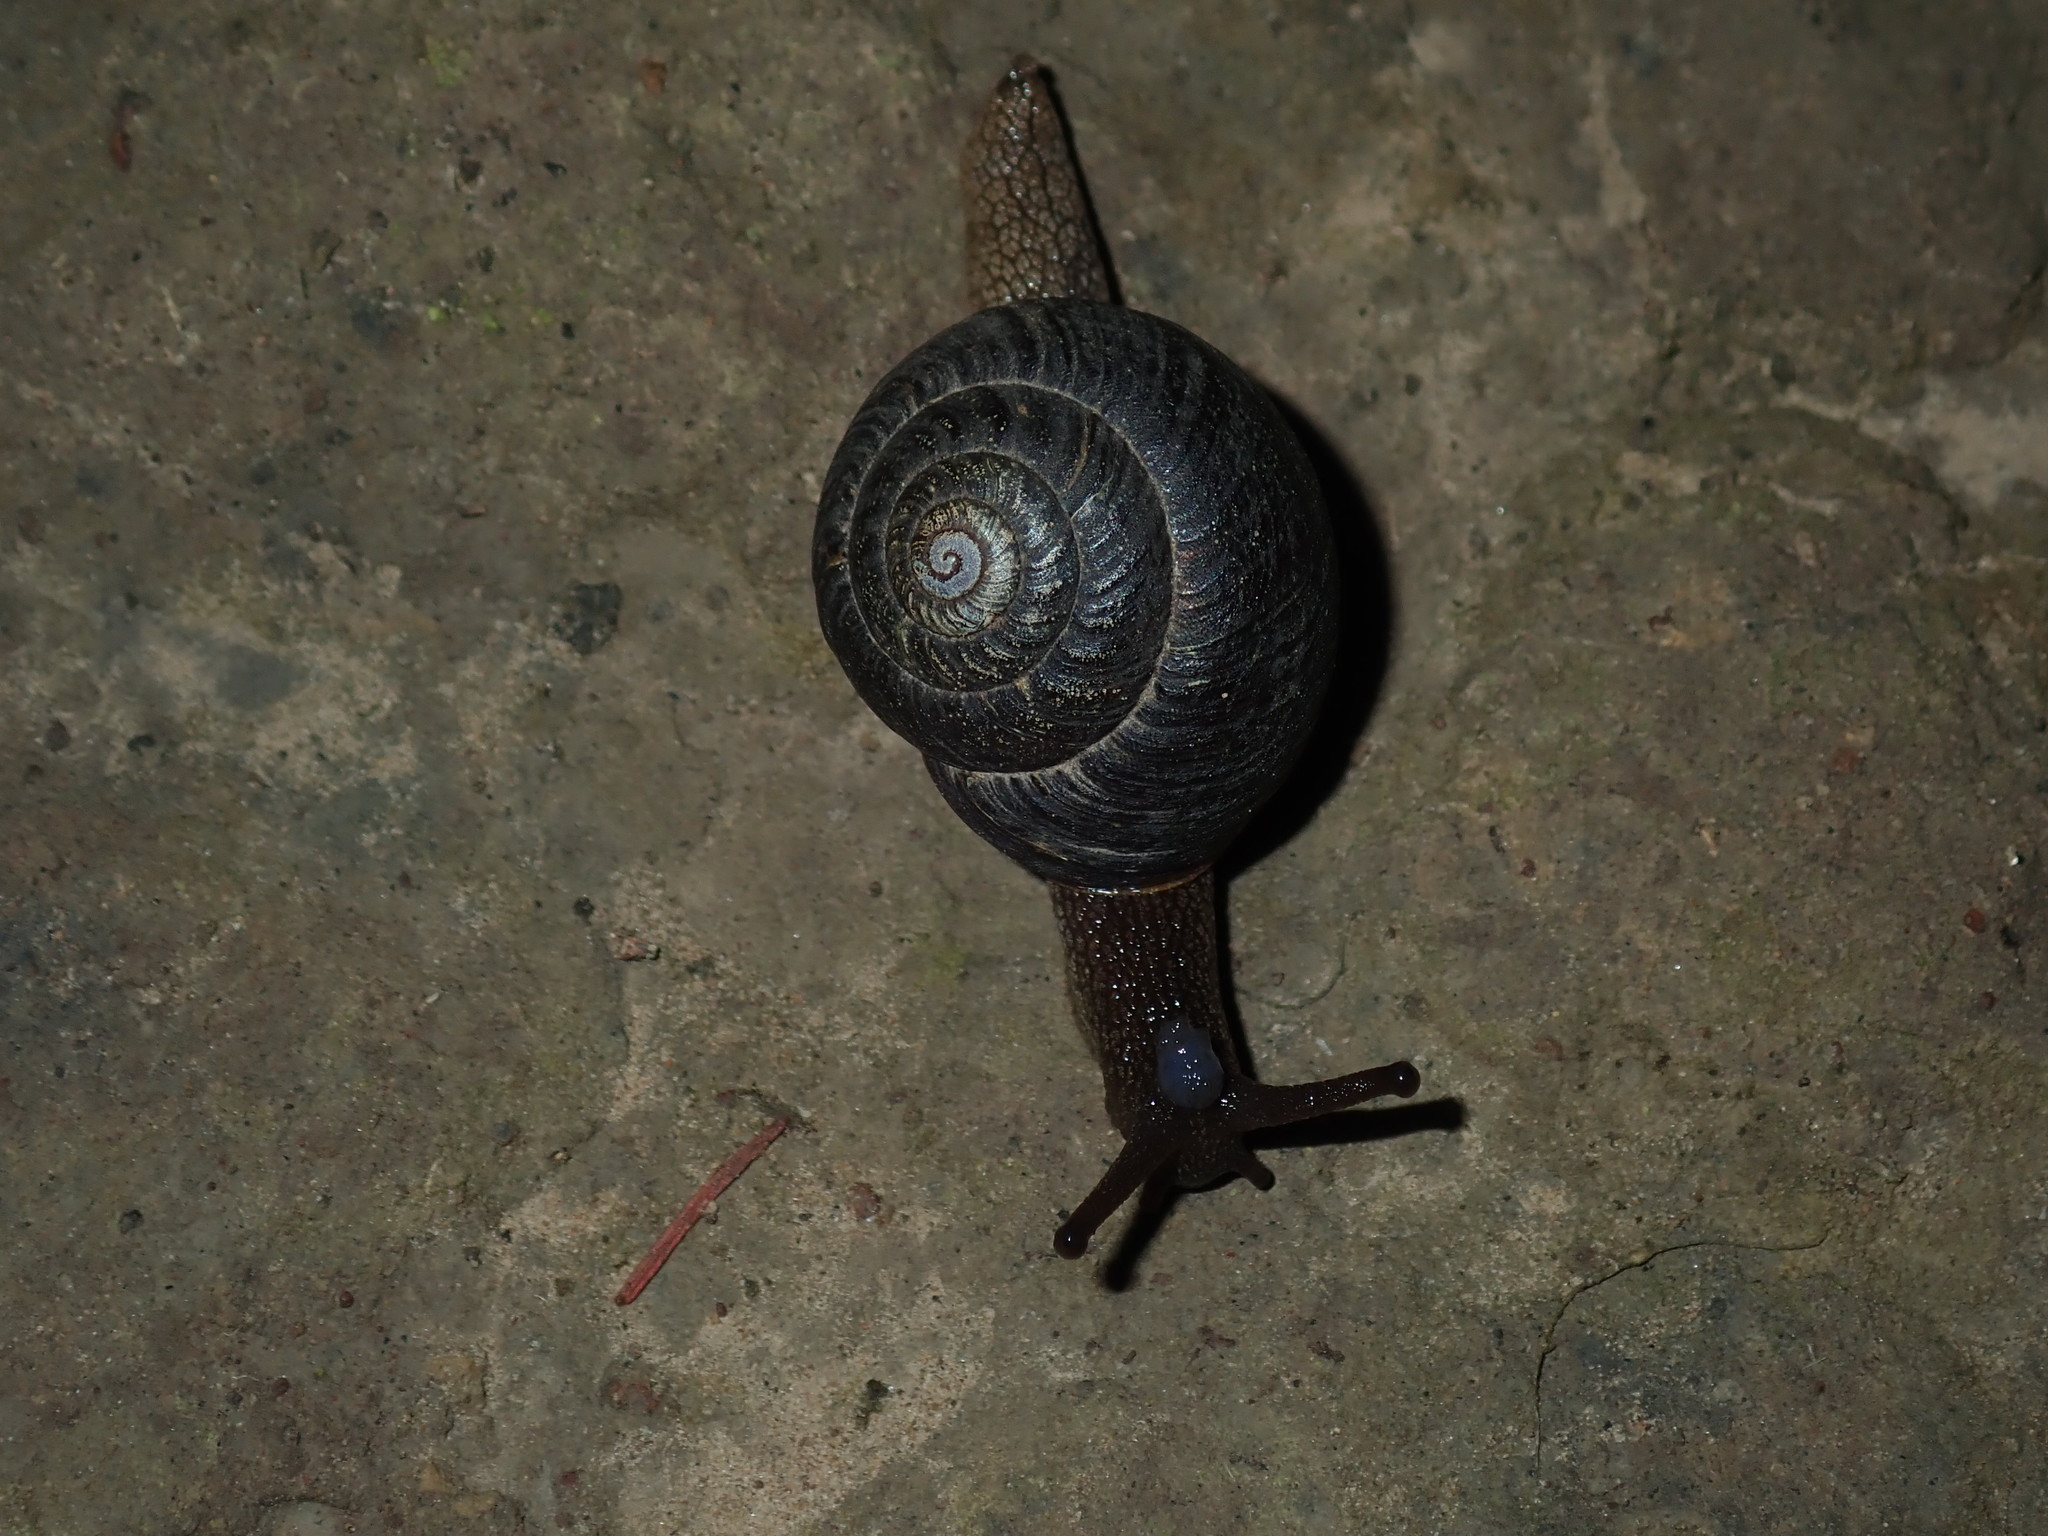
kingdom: Animalia
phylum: Mollusca
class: Gastropoda
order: Stylommatophora
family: Camaenidae
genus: Sauroconcha
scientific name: Sauroconcha sheai
